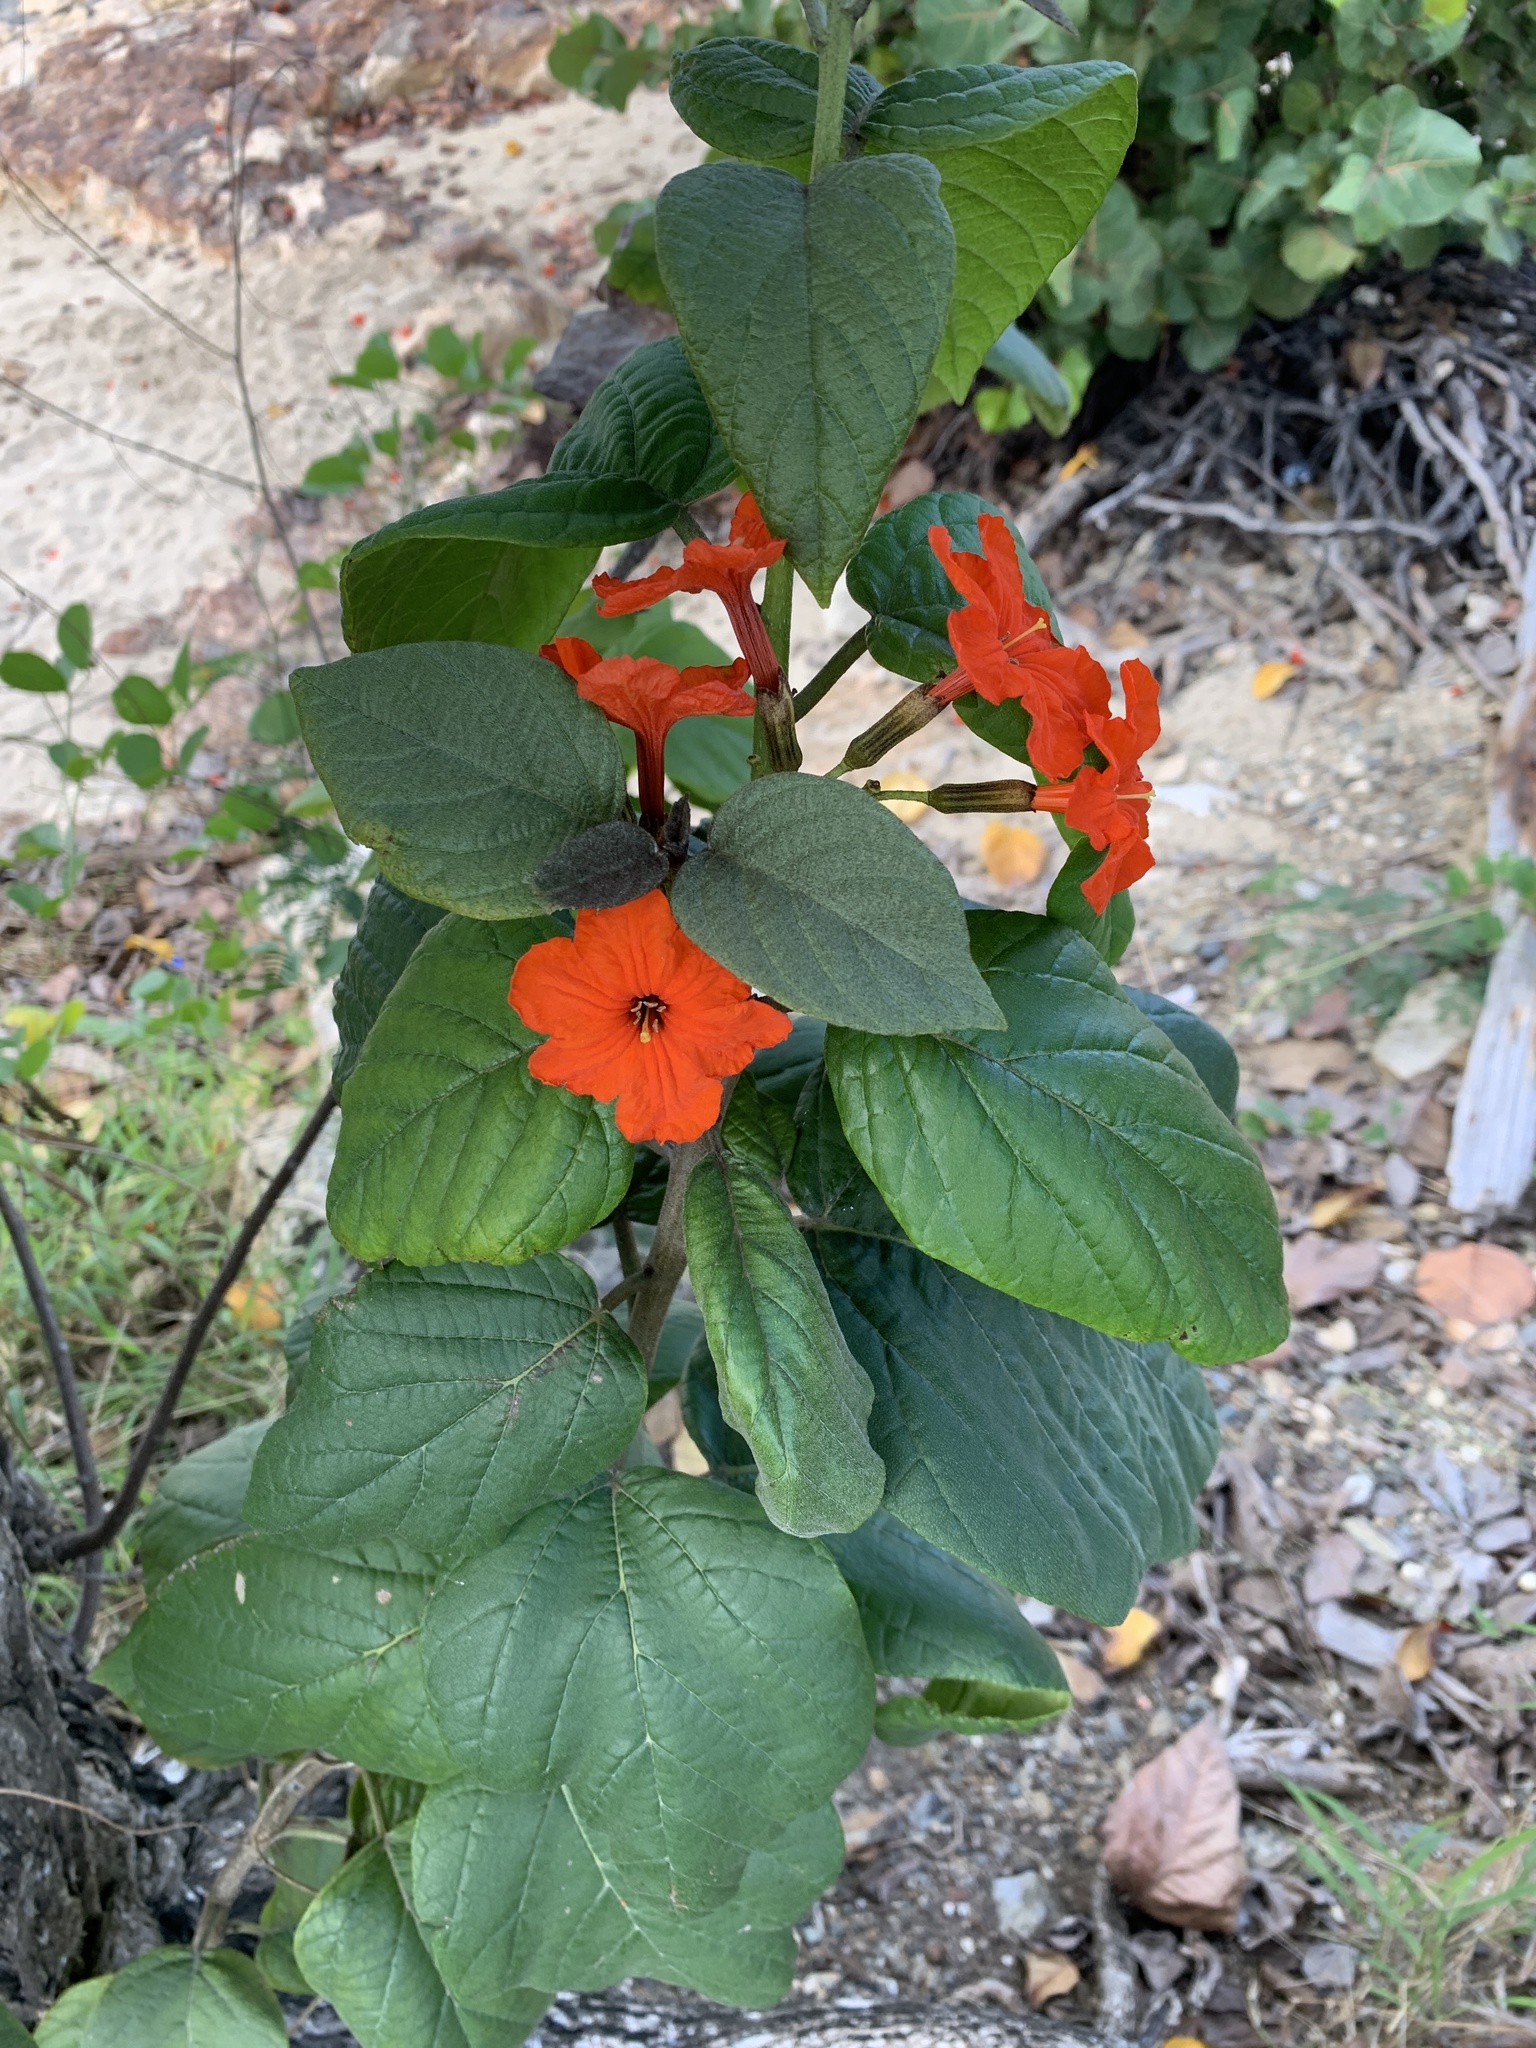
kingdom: Plantae
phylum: Tracheophyta
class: Magnoliopsida
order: Boraginales
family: Cordiaceae
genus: Cordia
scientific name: Cordia sebestena
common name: Largeleaf geigertree
